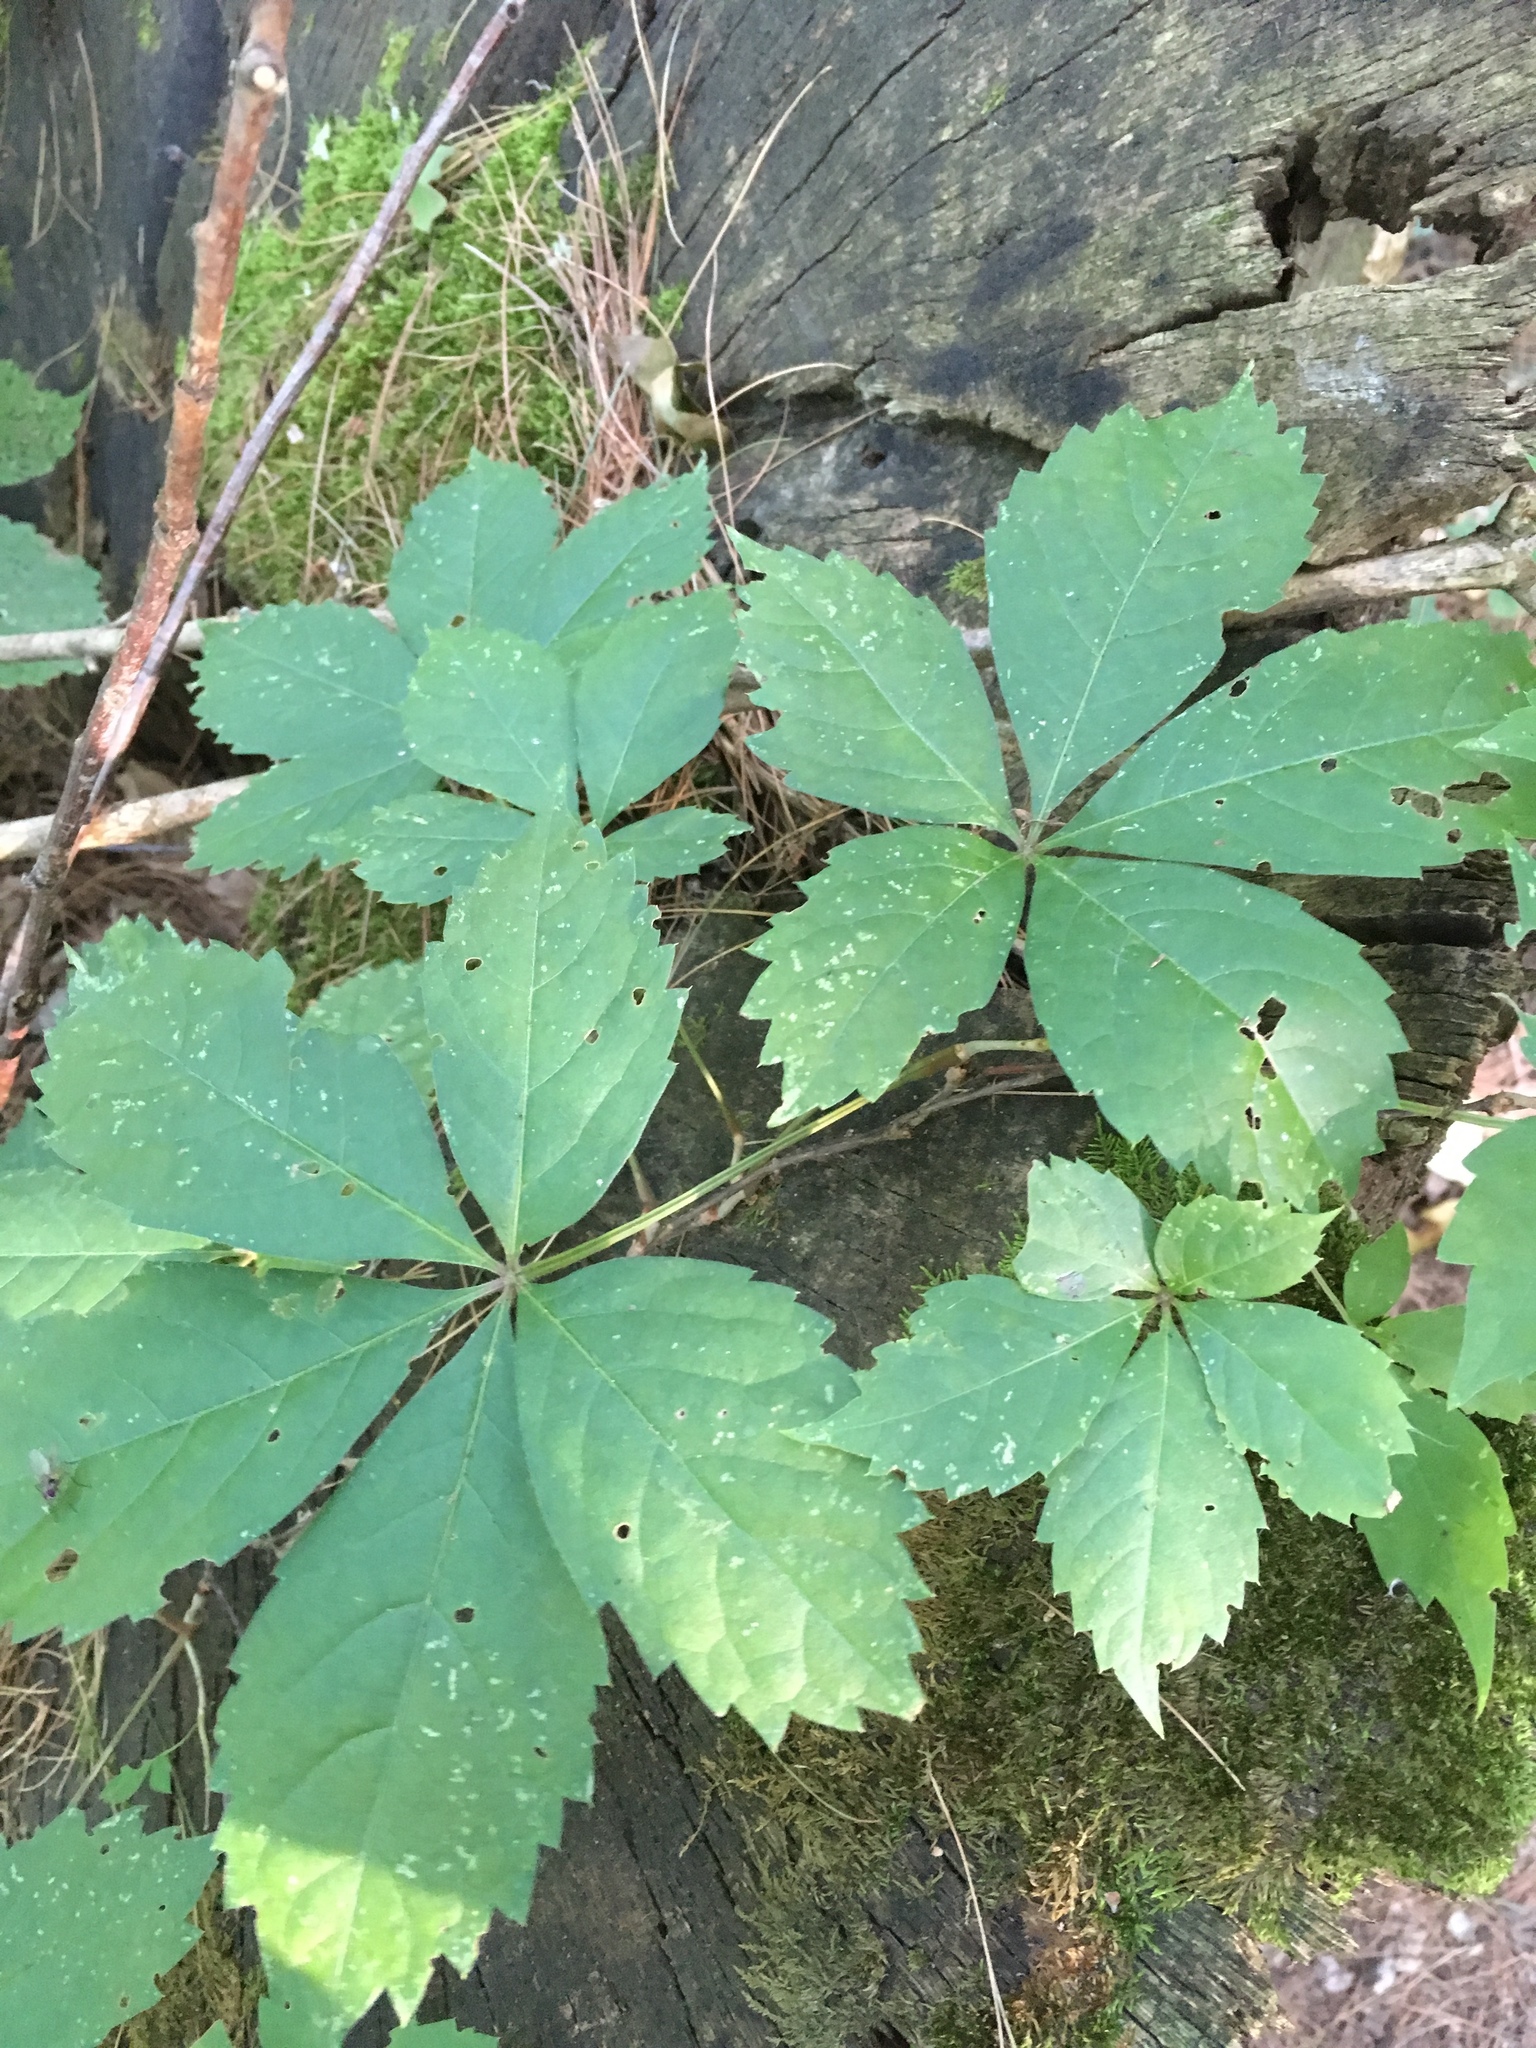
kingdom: Plantae
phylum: Tracheophyta
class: Magnoliopsida
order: Vitales
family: Vitaceae
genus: Parthenocissus
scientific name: Parthenocissus quinquefolia
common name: Virginia-creeper
